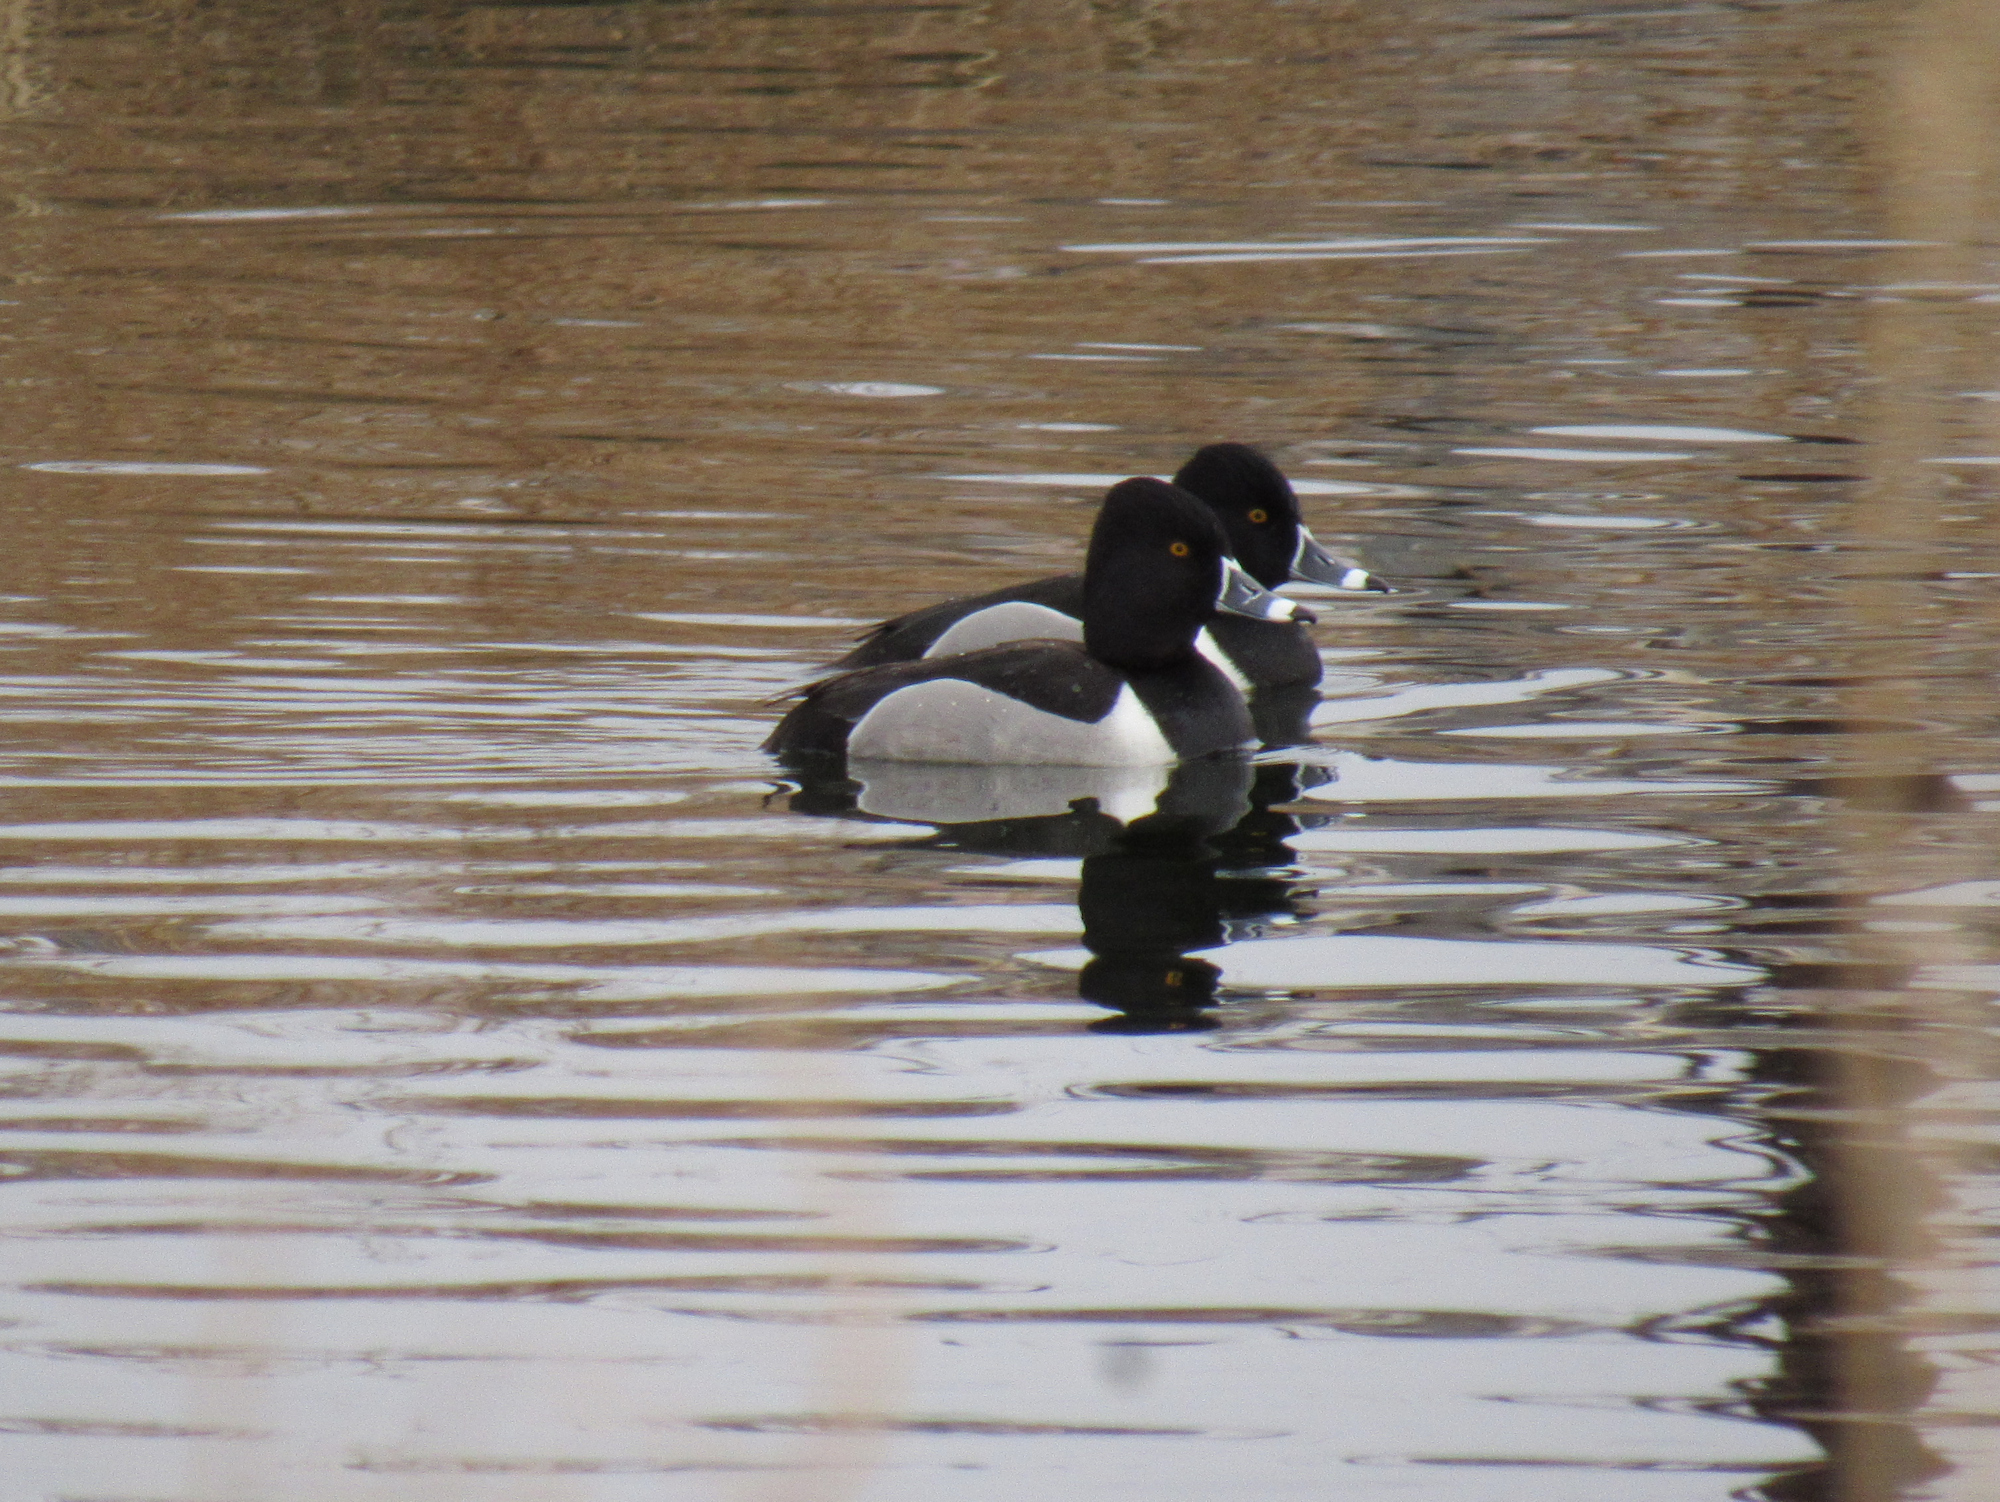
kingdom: Animalia
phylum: Chordata
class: Aves
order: Anseriformes
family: Anatidae
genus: Aythya
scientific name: Aythya collaris
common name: Ring-necked duck
